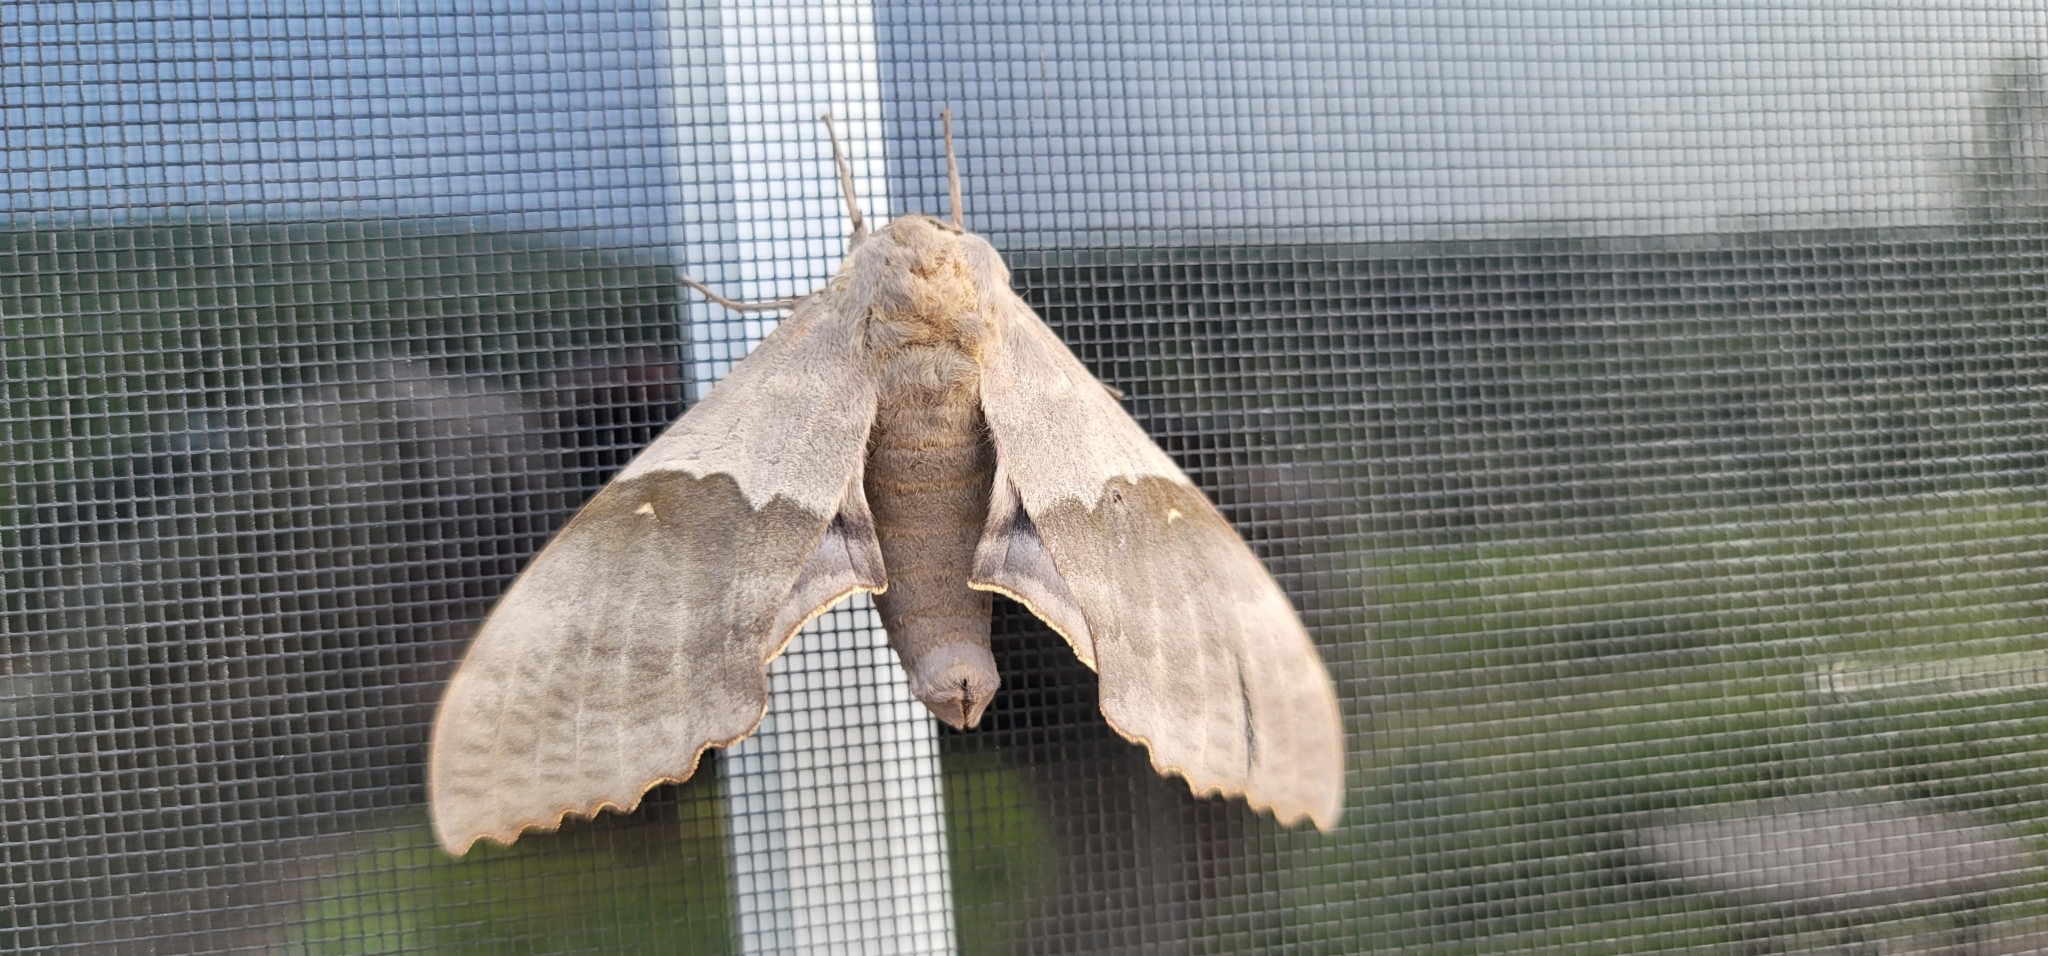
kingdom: Animalia
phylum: Arthropoda
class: Insecta
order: Lepidoptera
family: Sphingidae
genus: Pachysphinx
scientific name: Pachysphinx modesta
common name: Big poplar sphinx
